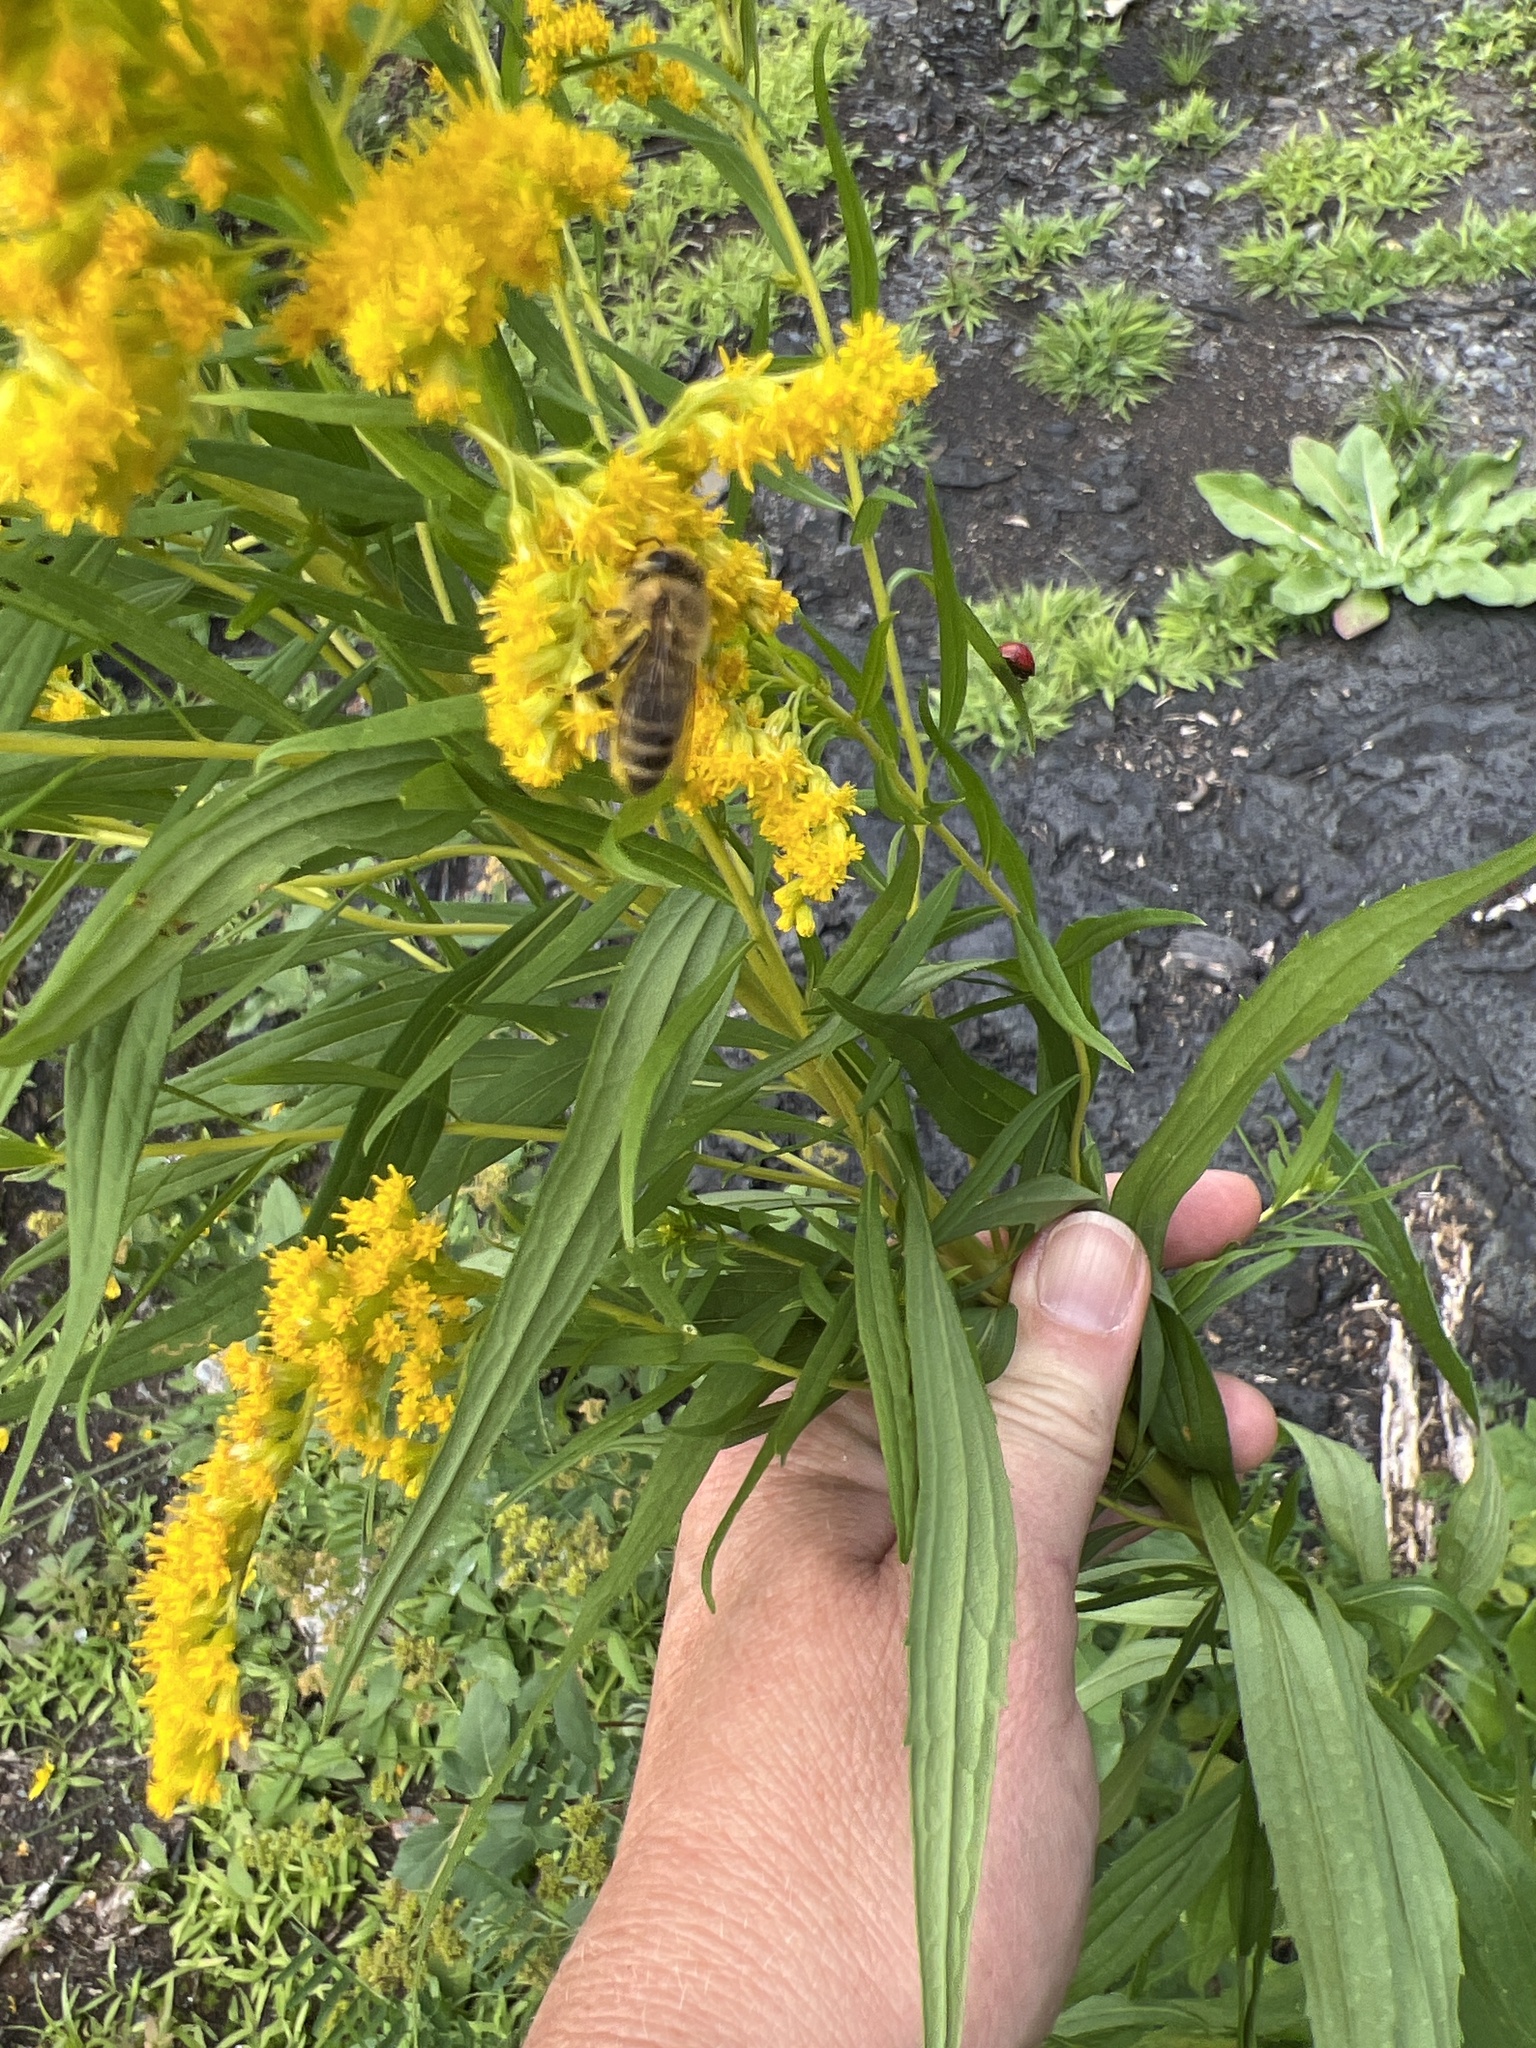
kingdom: Animalia
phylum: Arthropoda
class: Insecta
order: Hymenoptera
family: Apidae
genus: Apis
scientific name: Apis mellifera
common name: Honey bee
